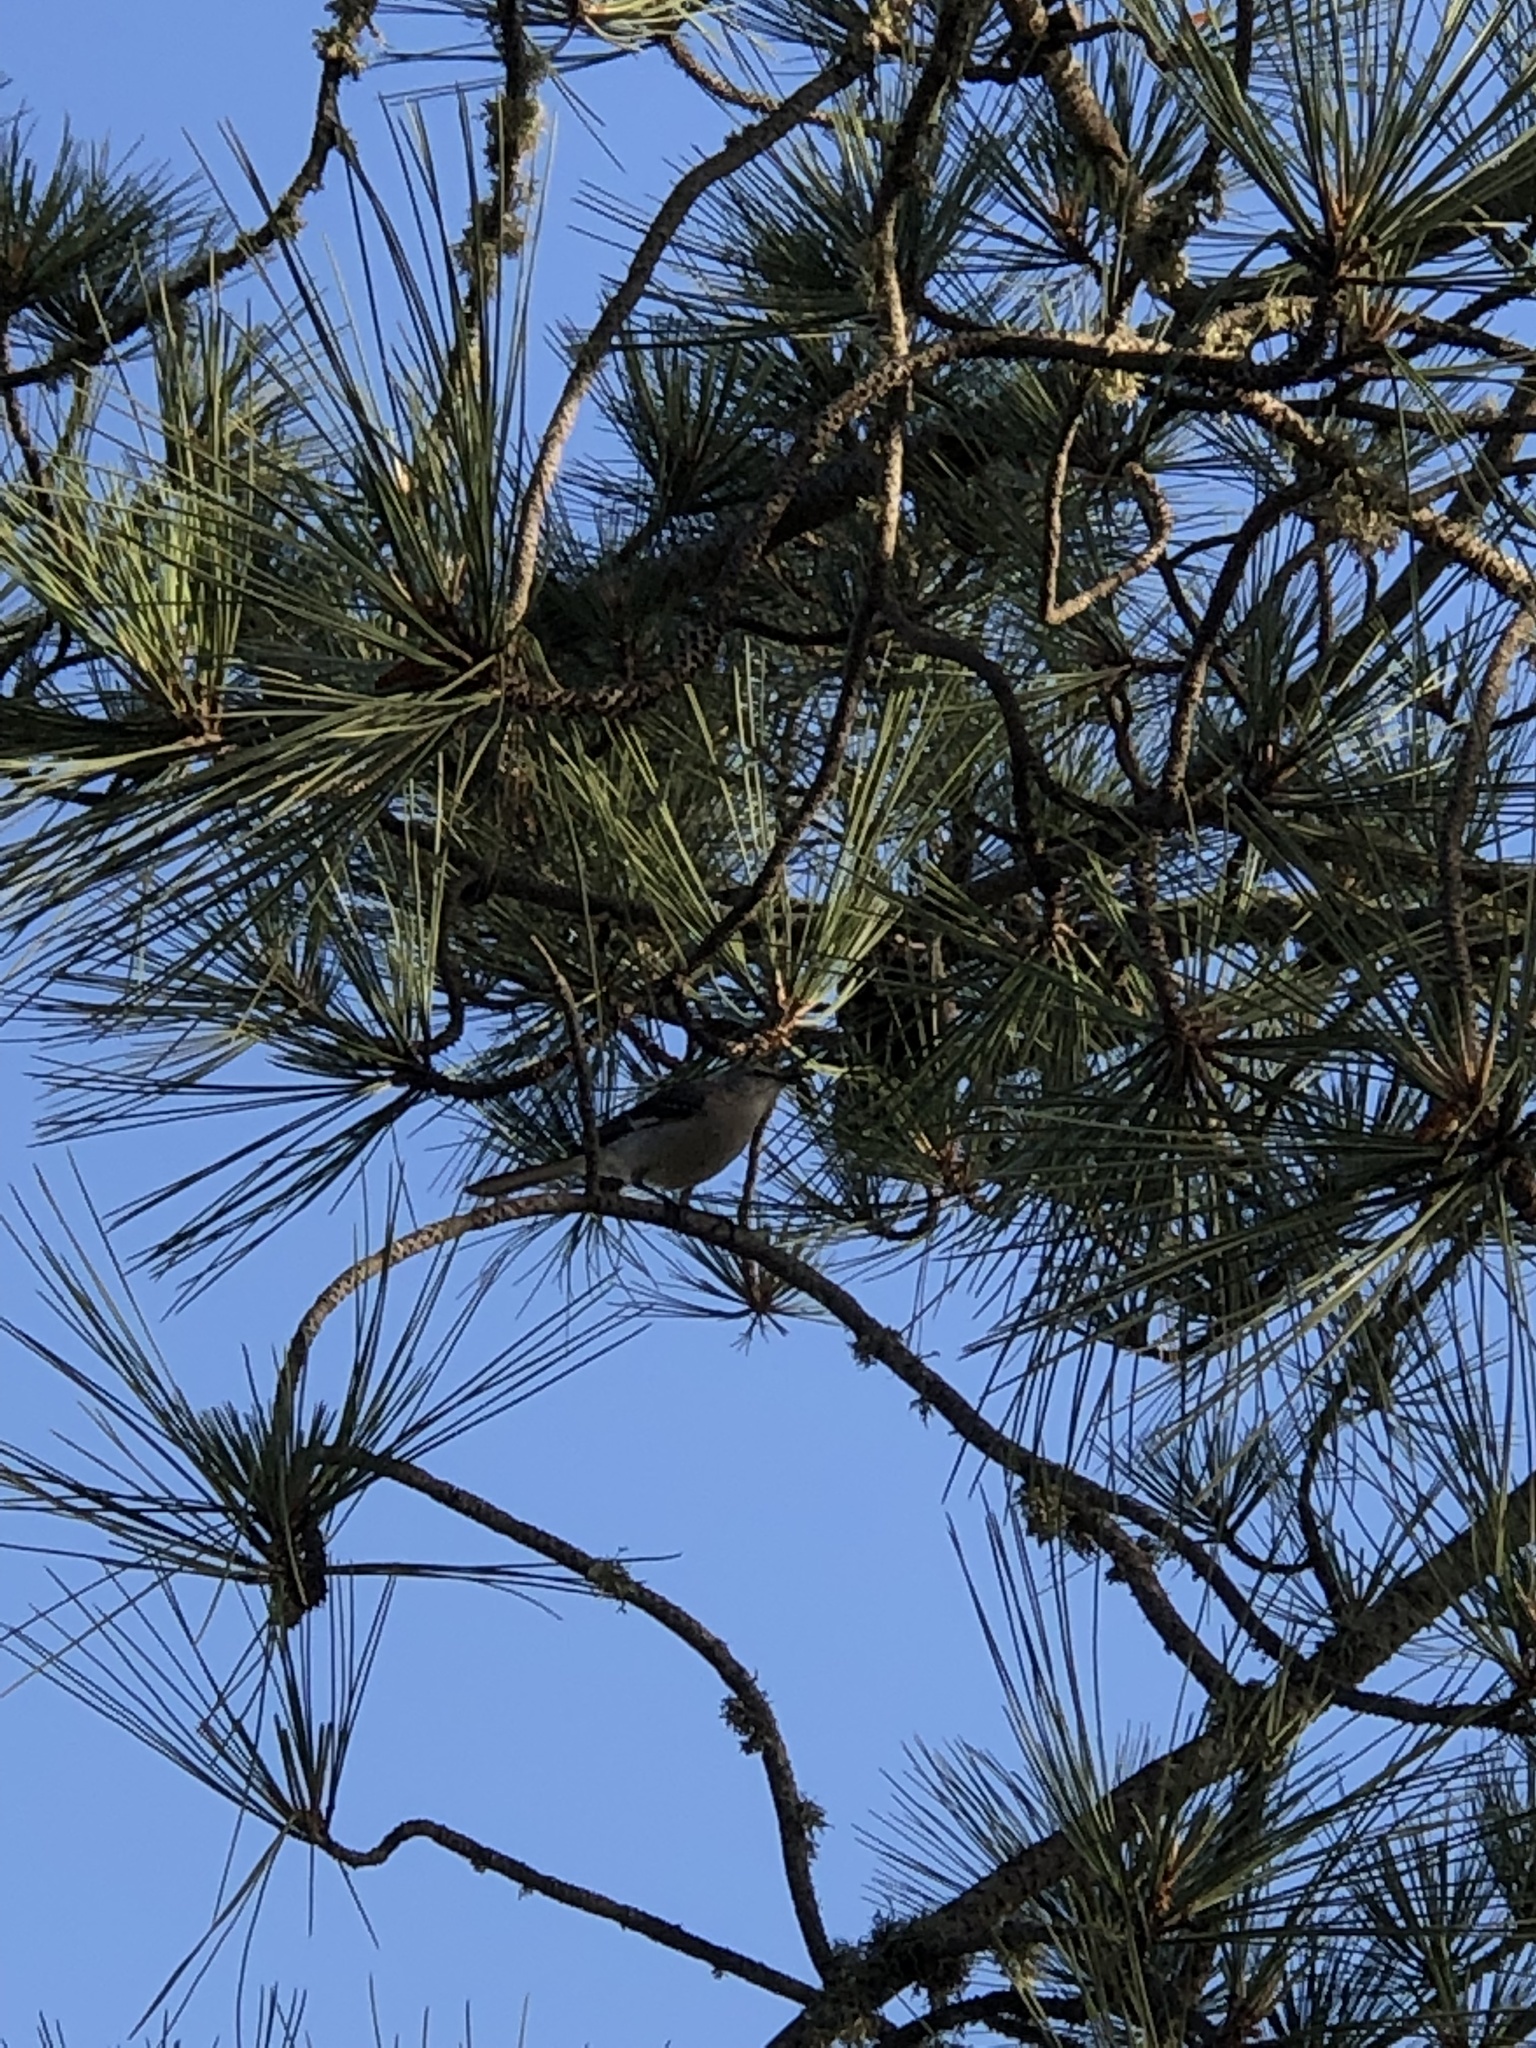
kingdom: Animalia
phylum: Chordata
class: Aves
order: Passeriformes
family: Mimidae
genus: Mimus
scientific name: Mimus polyglottos
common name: Northern mockingbird
